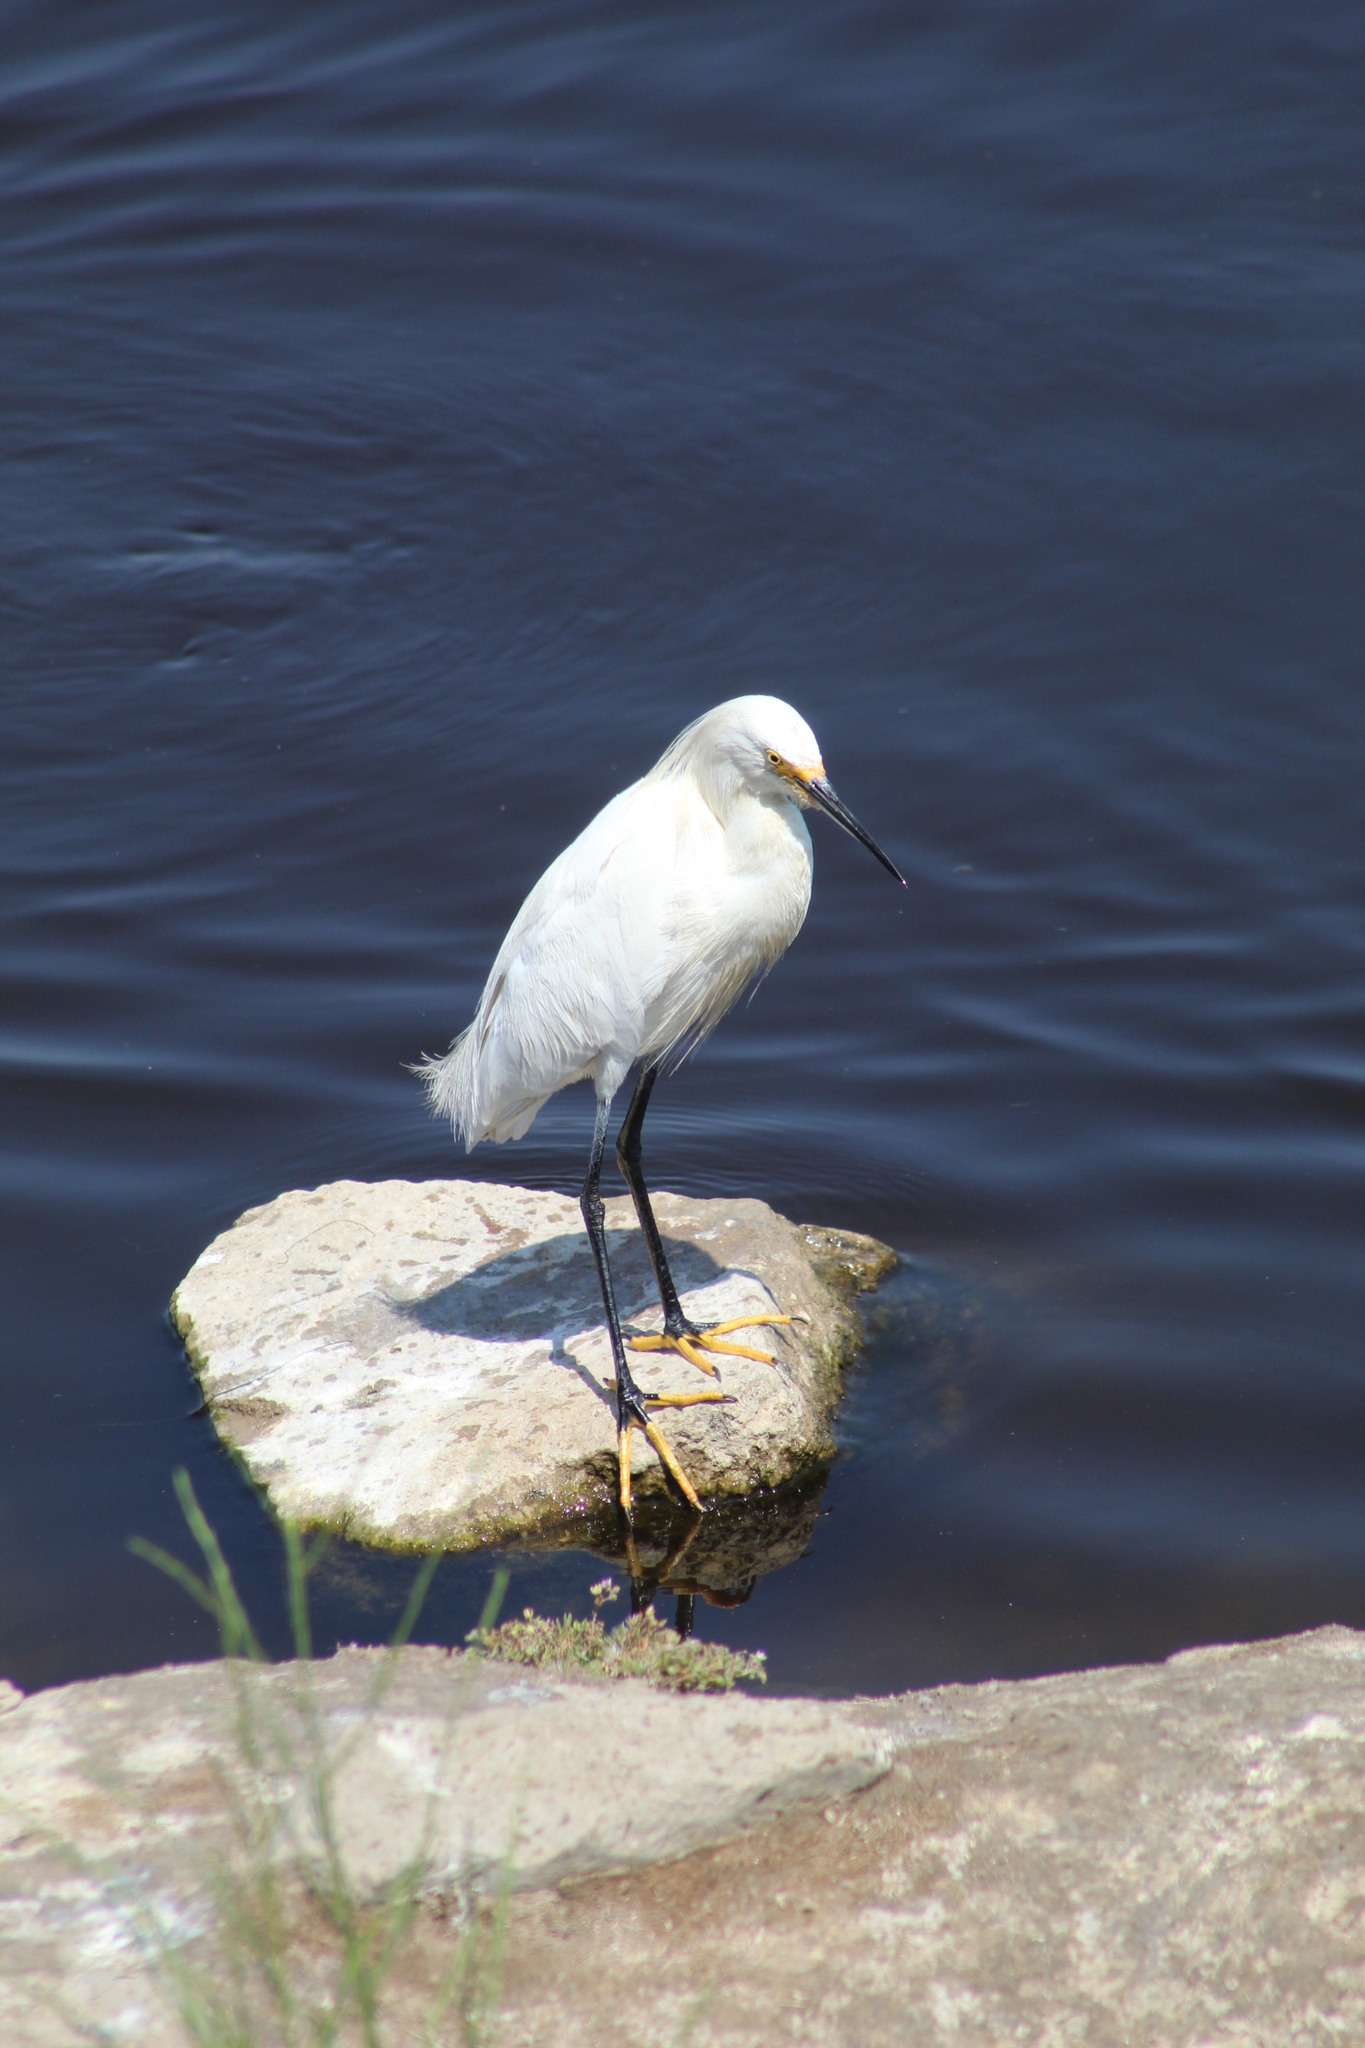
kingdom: Animalia
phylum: Chordata
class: Aves
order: Pelecaniformes
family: Ardeidae
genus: Egretta
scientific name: Egretta thula
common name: Snowy egret
